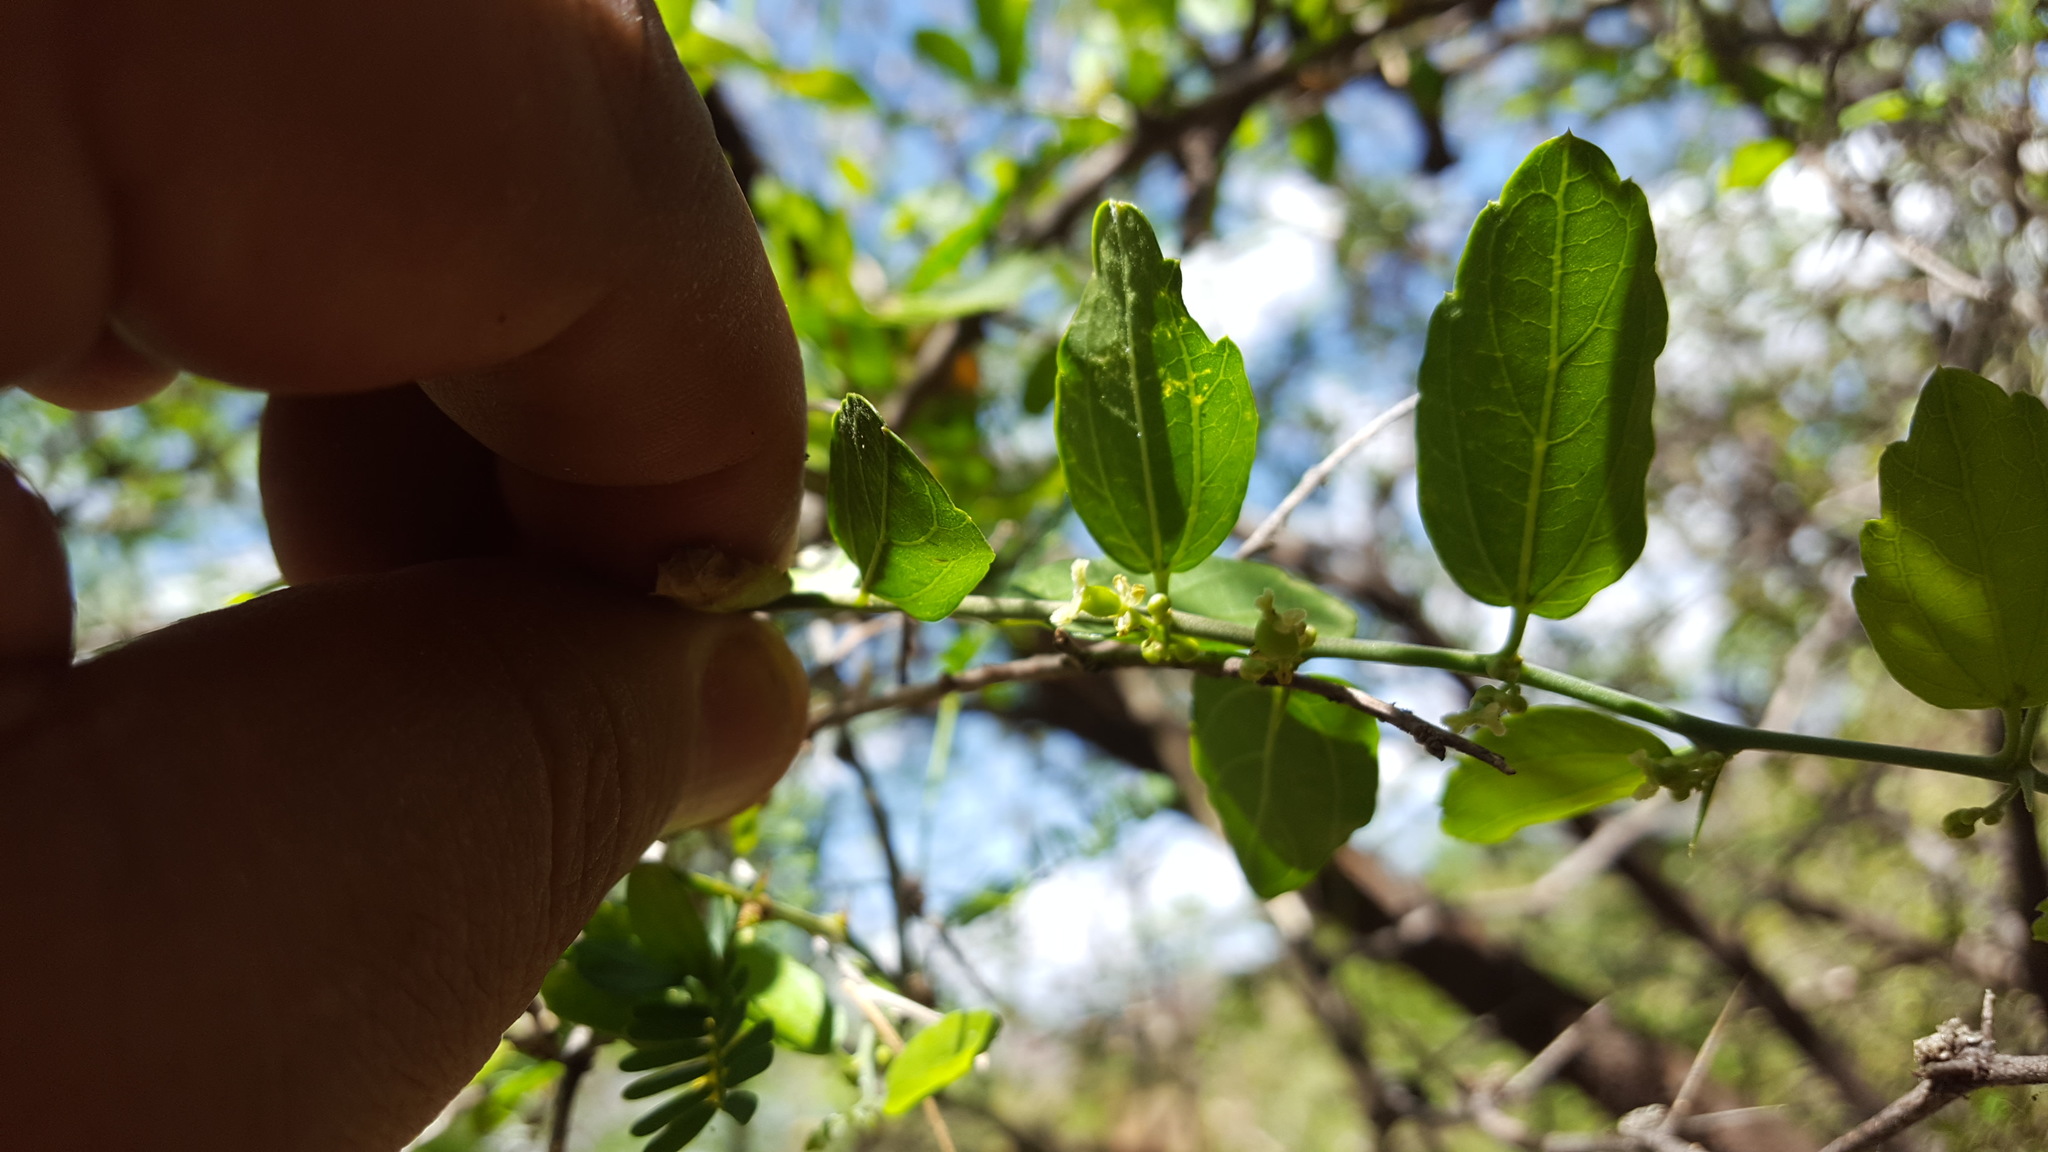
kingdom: Plantae
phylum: Tracheophyta
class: Magnoliopsida
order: Rosales
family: Cannabaceae
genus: Celtis
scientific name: Celtis pallida
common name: Desert hackberry
